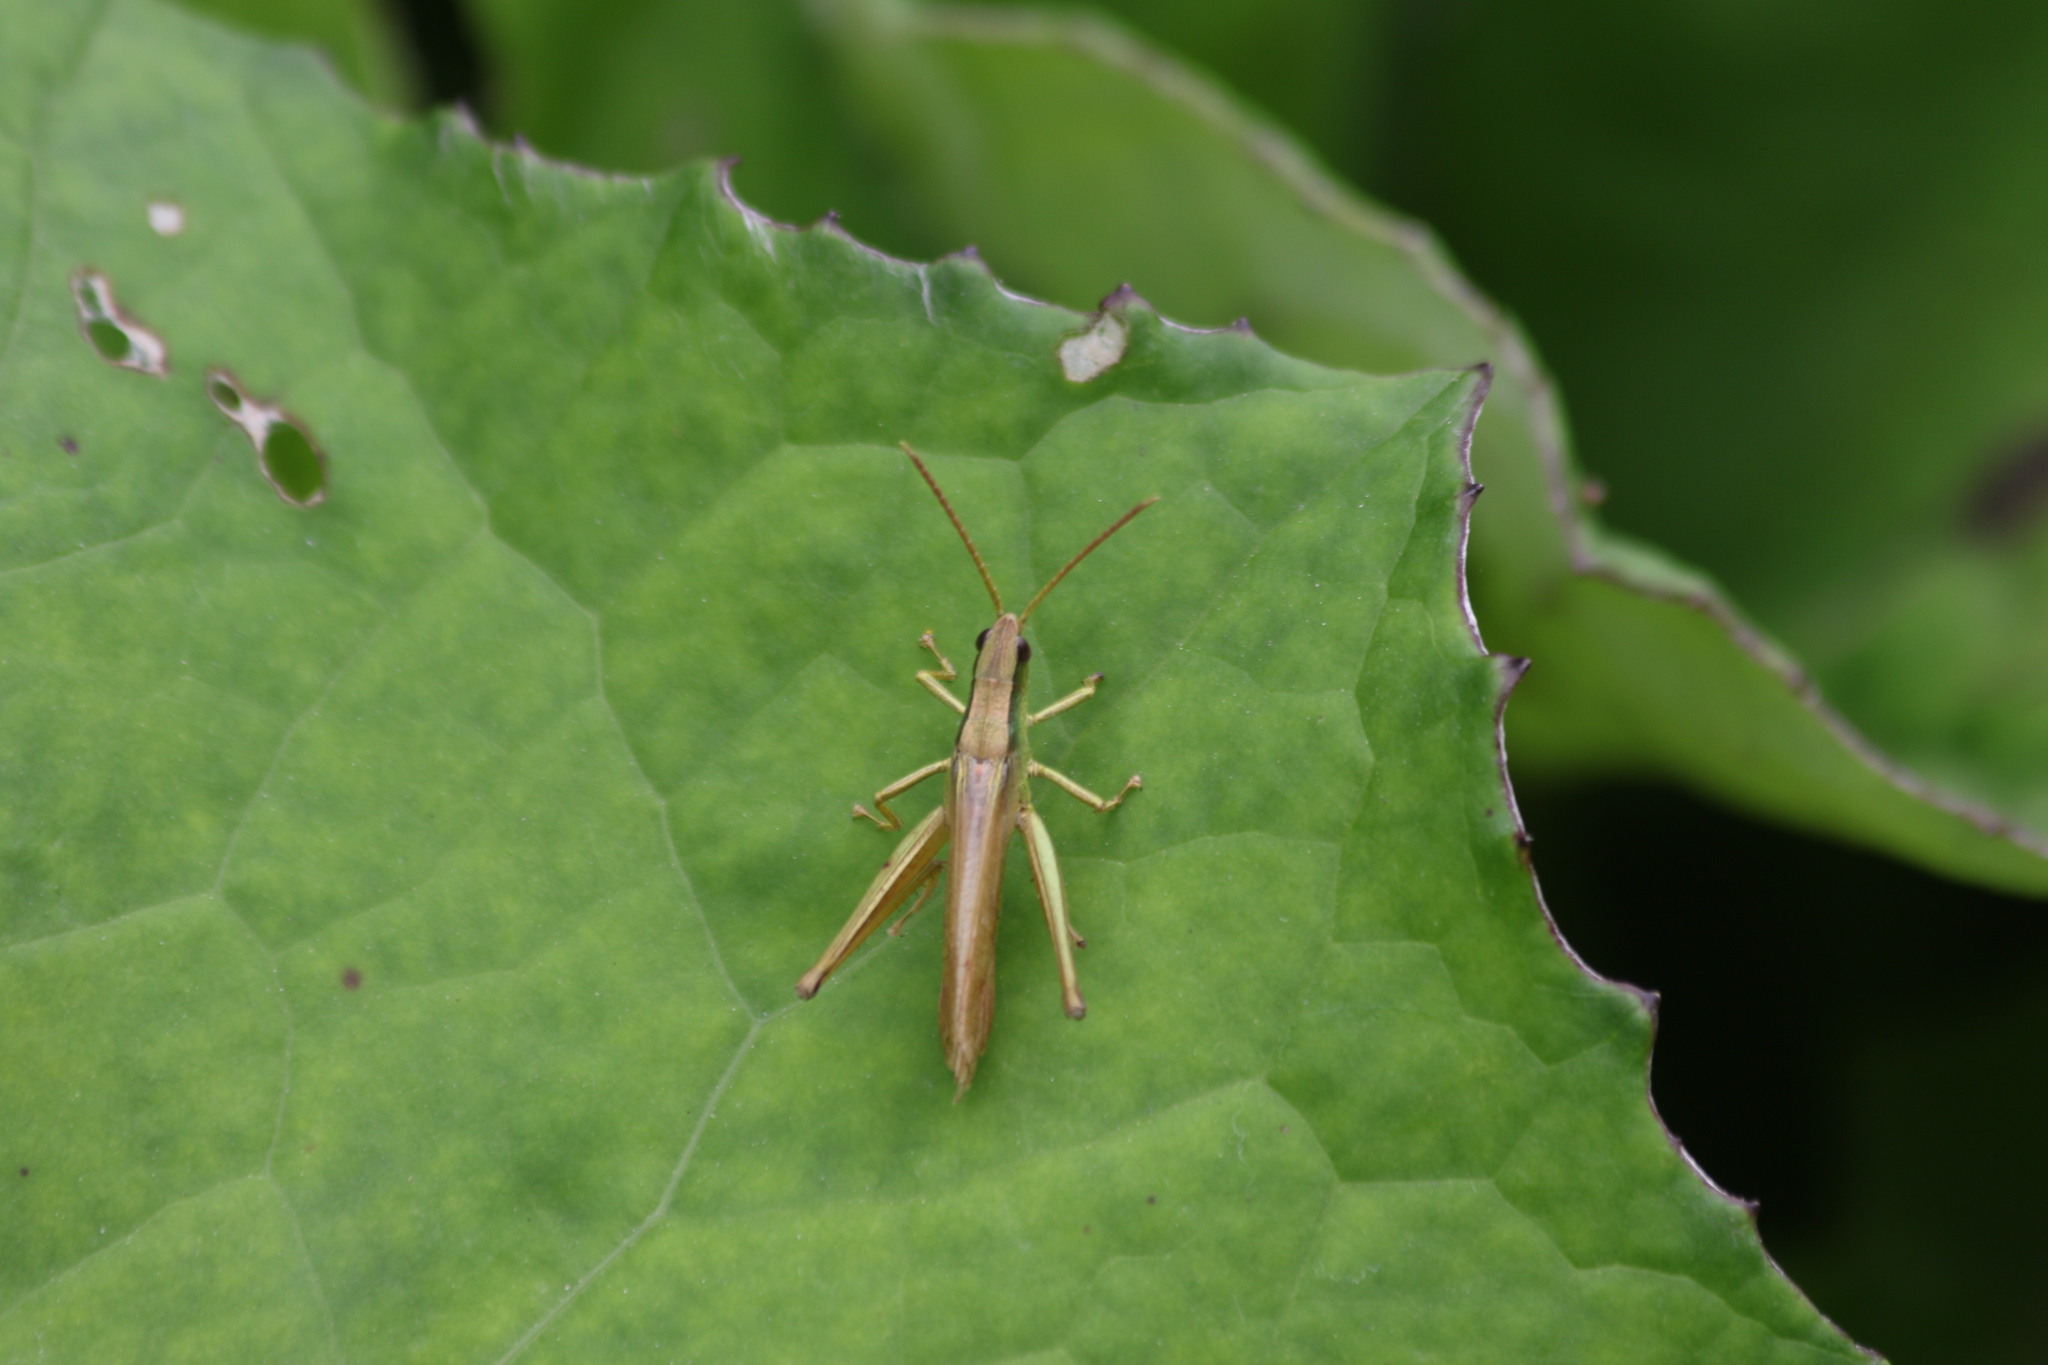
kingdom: Animalia
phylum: Arthropoda
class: Insecta
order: Orthoptera
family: Acrididae
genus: Chrysochraon
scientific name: Chrysochraon dispar
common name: Large gold grasshopper
